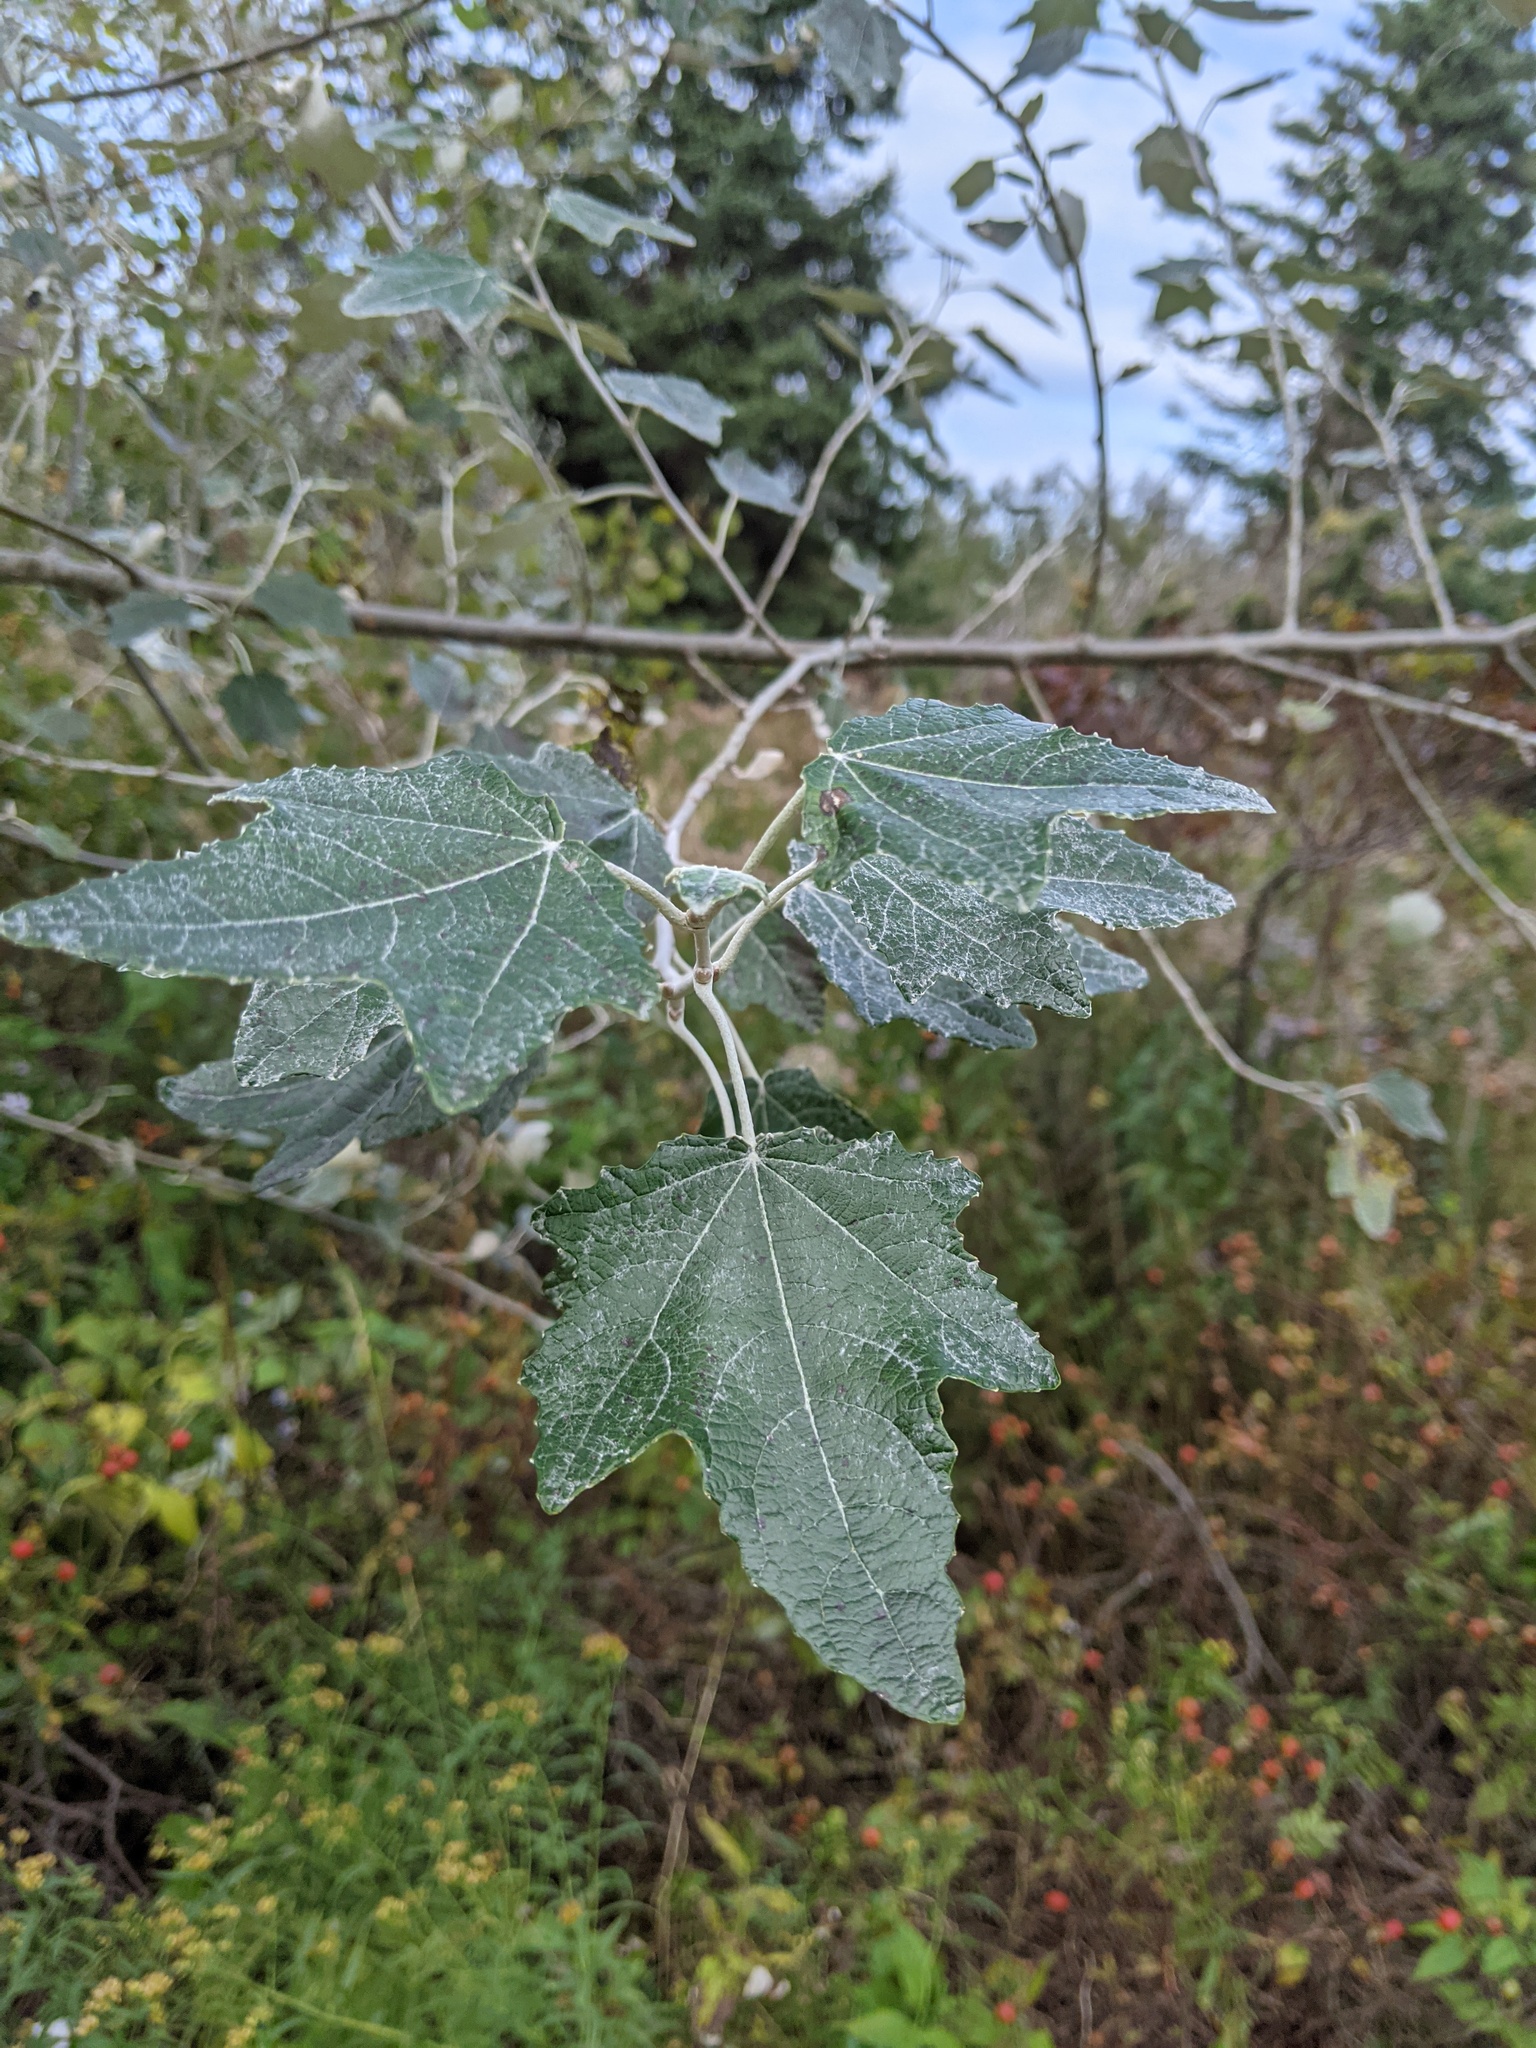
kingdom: Plantae
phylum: Tracheophyta
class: Magnoliopsida
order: Malpighiales
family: Salicaceae
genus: Populus
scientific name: Populus alba
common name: White poplar
